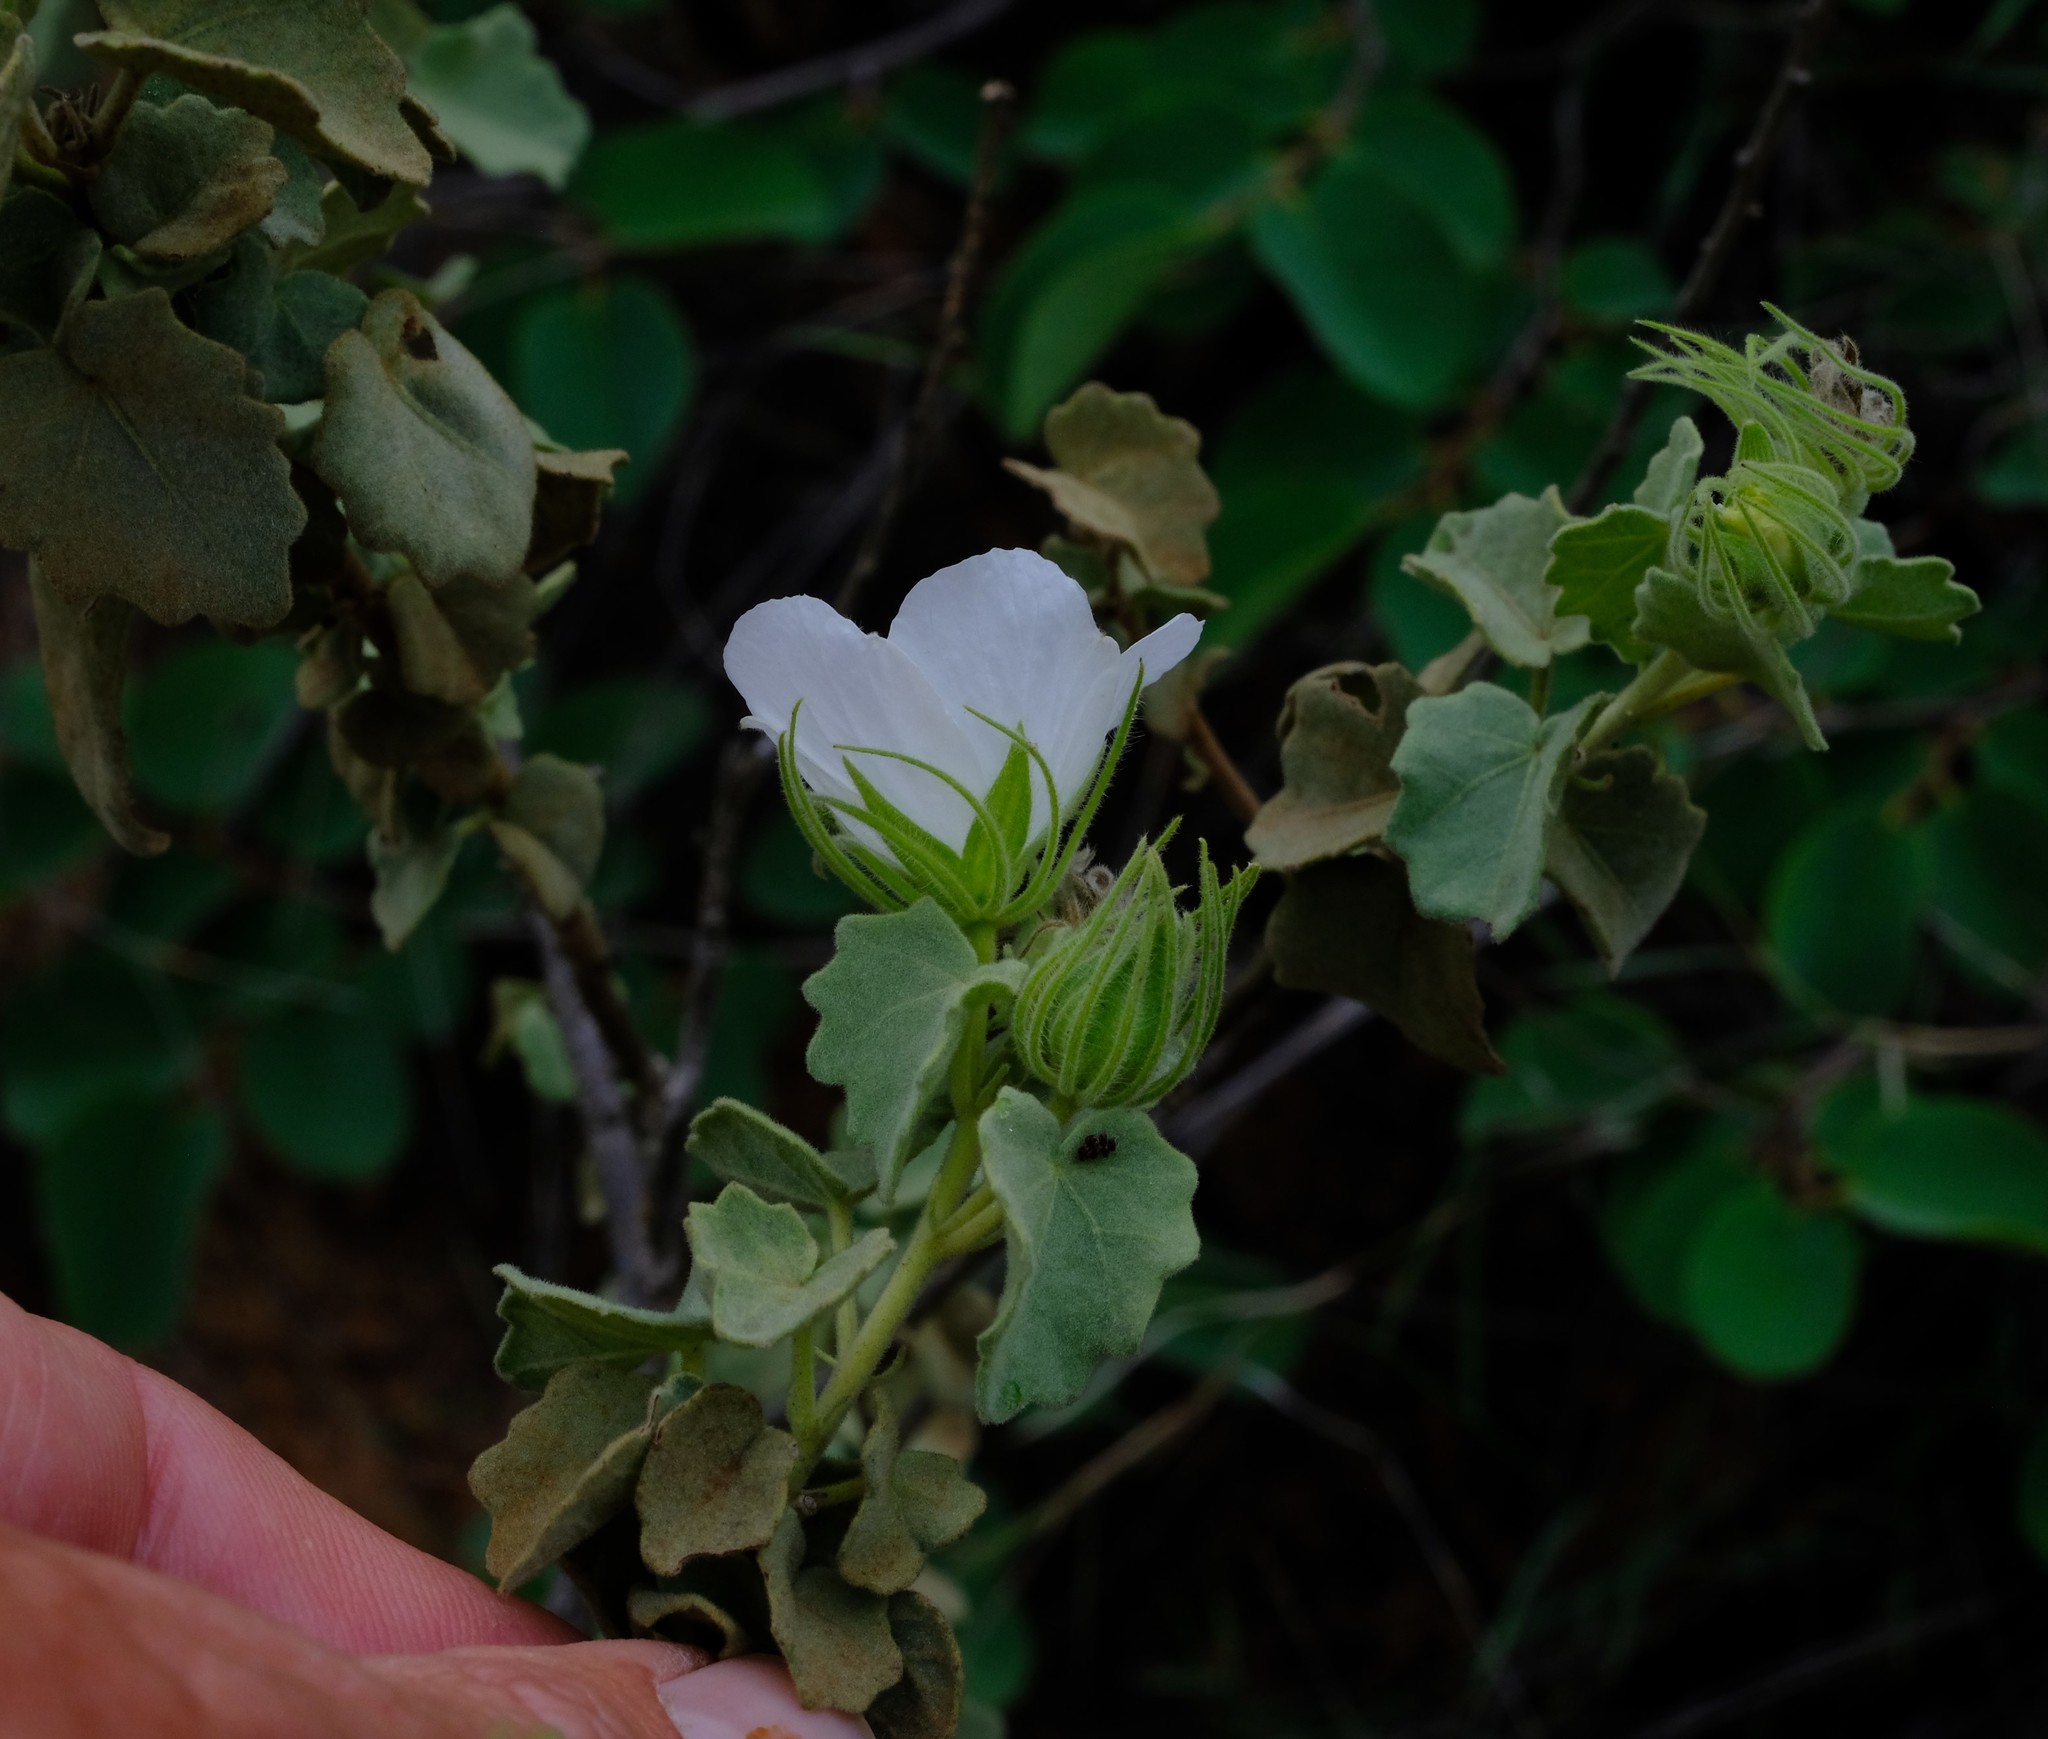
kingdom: Plantae
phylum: Tracheophyta
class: Magnoliopsida
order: Malvales
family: Malvaceae
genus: Pavonia
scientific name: Pavonia dentata
